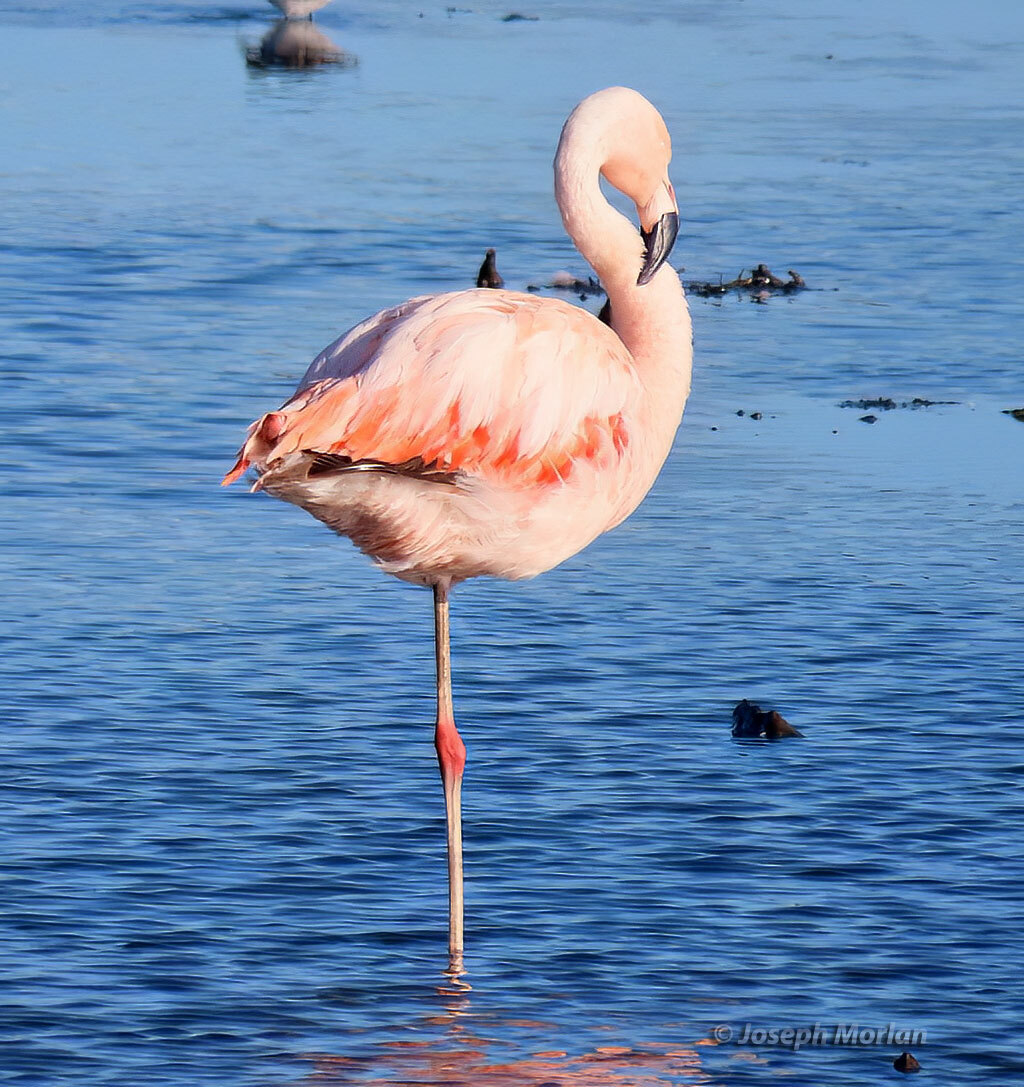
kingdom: Animalia
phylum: Chordata
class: Aves
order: Phoenicopteriformes
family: Phoenicopteridae
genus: Phoenicopterus
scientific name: Phoenicopterus chilensis
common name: Chilean flamingo
